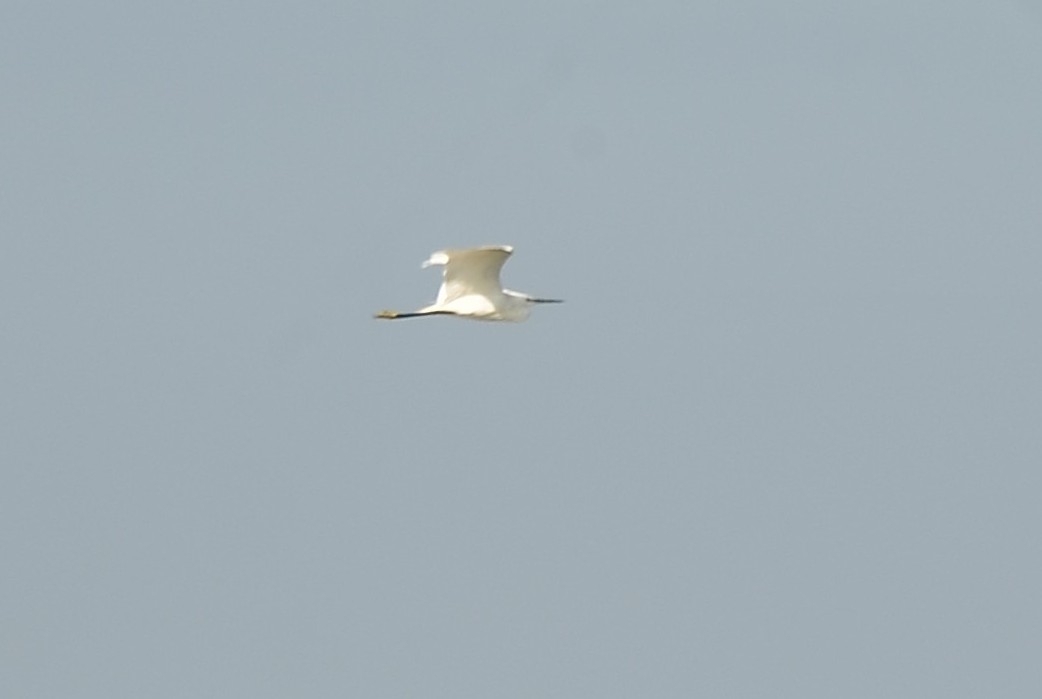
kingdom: Animalia
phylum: Chordata
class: Aves
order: Pelecaniformes
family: Ardeidae
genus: Egretta
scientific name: Egretta garzetta
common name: Little egret
